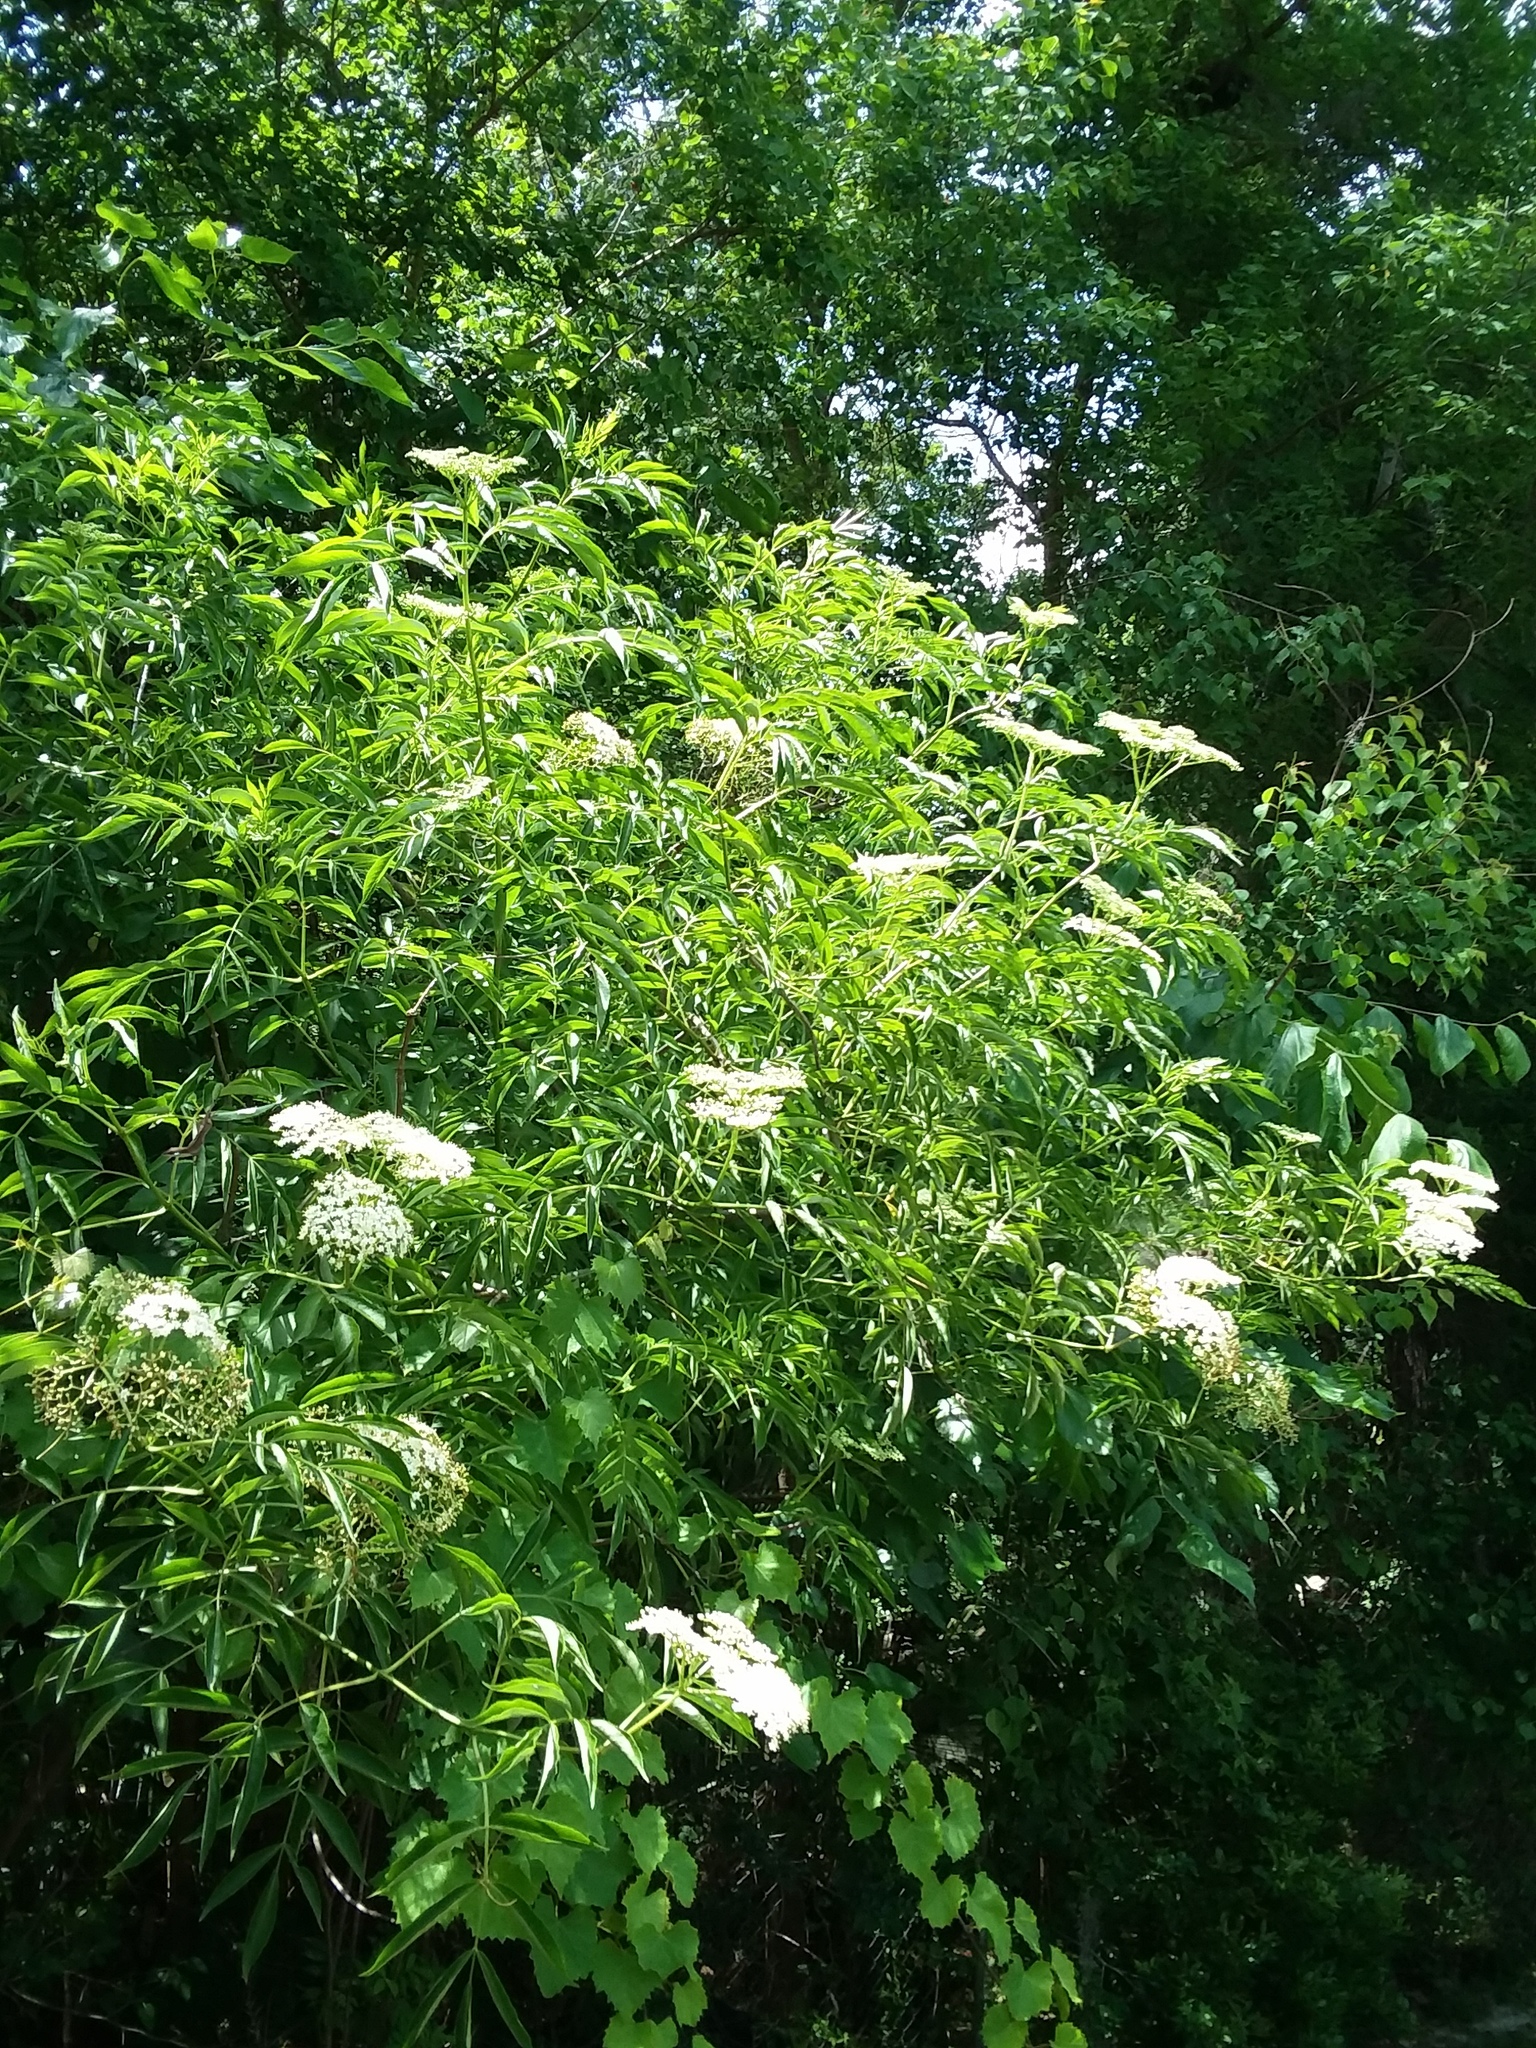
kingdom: Plantae
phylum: Tracheophyta
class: Magnoliopsida
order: Dipsacales
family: Viburnaceae
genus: Sambucus
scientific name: Sambucus canadensis
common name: American elder
